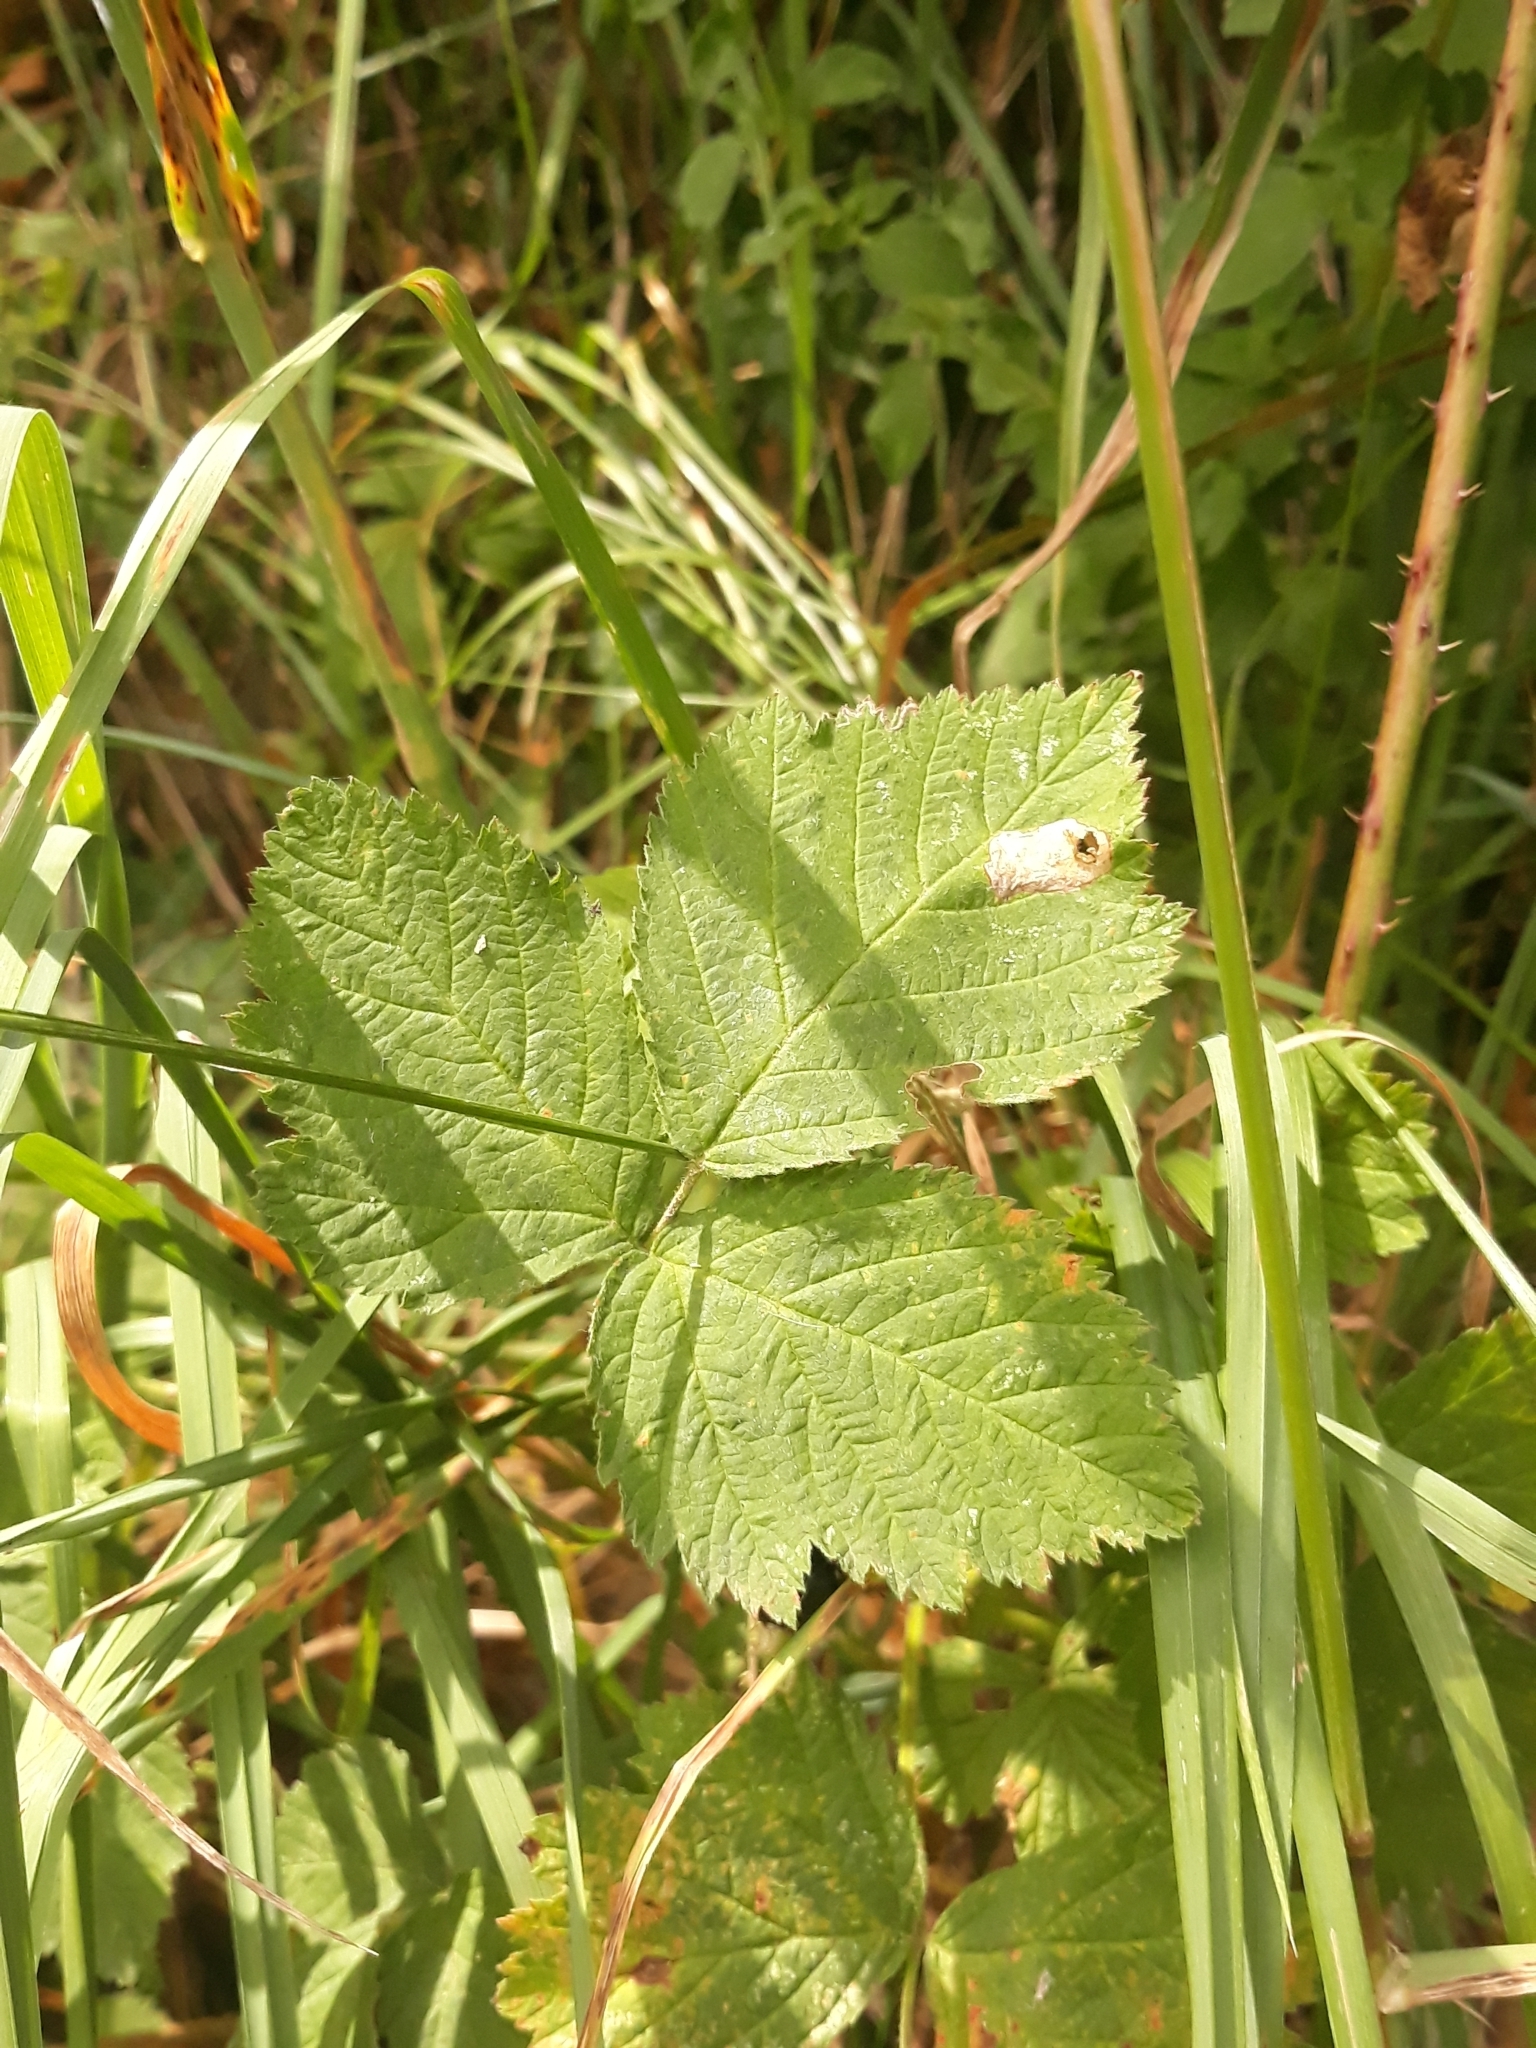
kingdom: Plantae
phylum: Tracheophyta
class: Magnoliopsida
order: Rosales
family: Rosaceae
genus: Rubus
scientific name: Rubus caesius
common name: Dewberry
